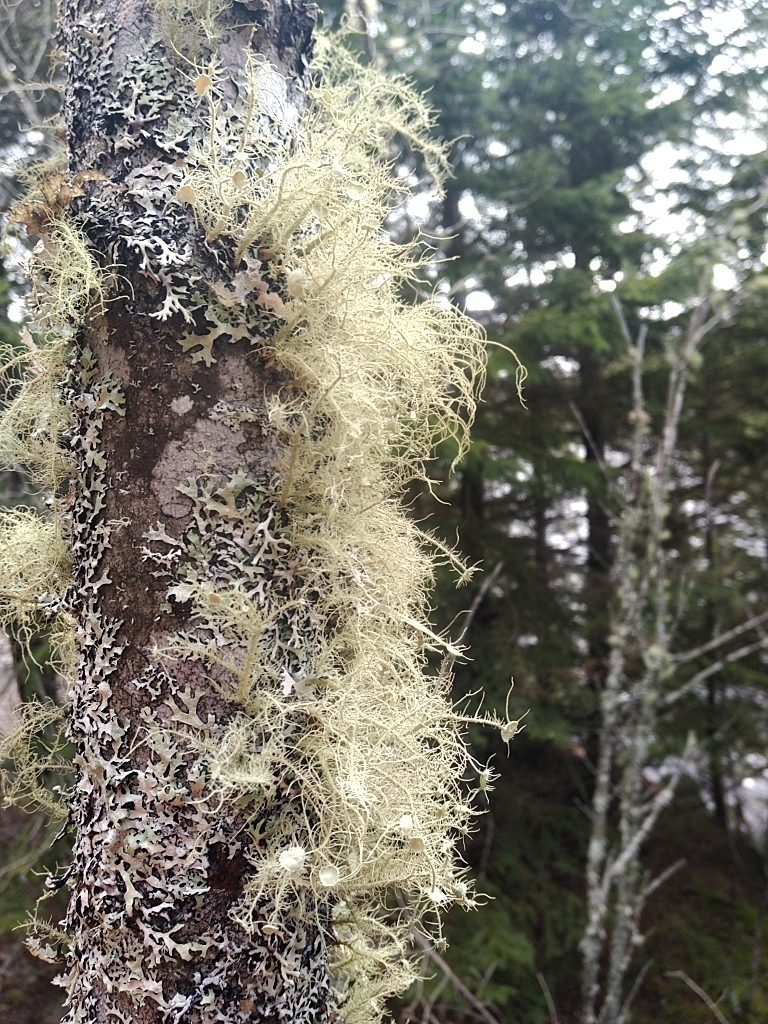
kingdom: Fungi
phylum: Ascomycota
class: Lecanoromycetes
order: Lecanorales
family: Parmeliaceae
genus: Usnea
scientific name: Usnea strigosa
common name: Bushy beard lichen
